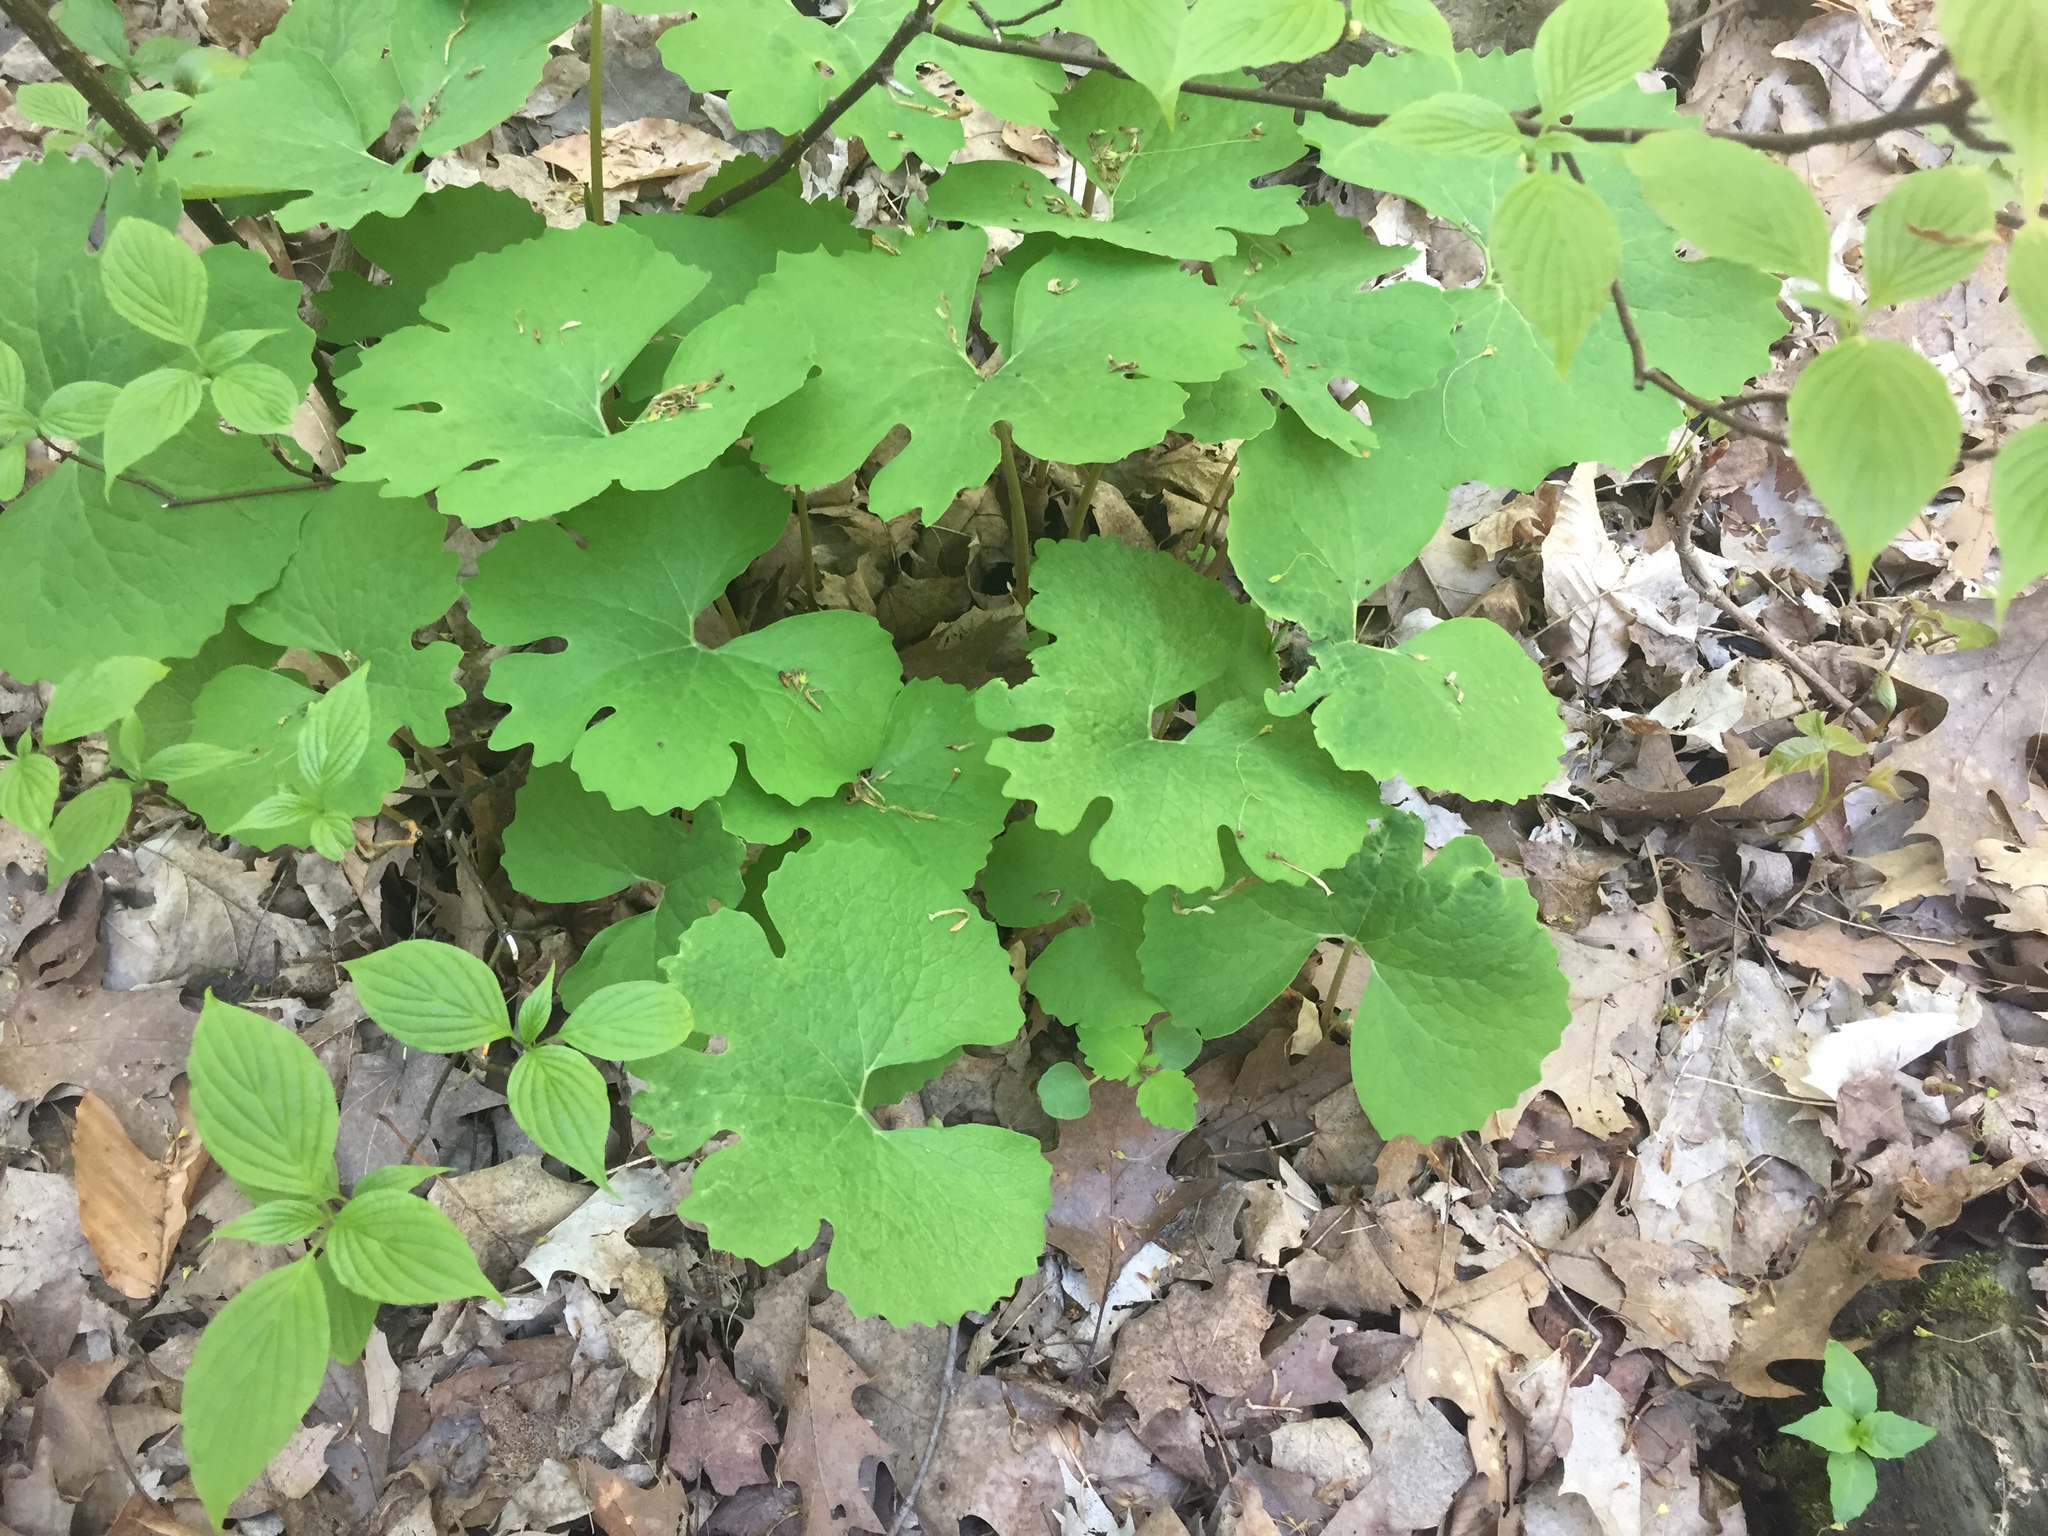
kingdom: Plantae
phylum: Tracheophyta
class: Magnoliopsida
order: Ranunculales
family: Papaveraceae
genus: Sanguinaria
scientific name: Sanguinaria canadensis
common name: Bloodroot
